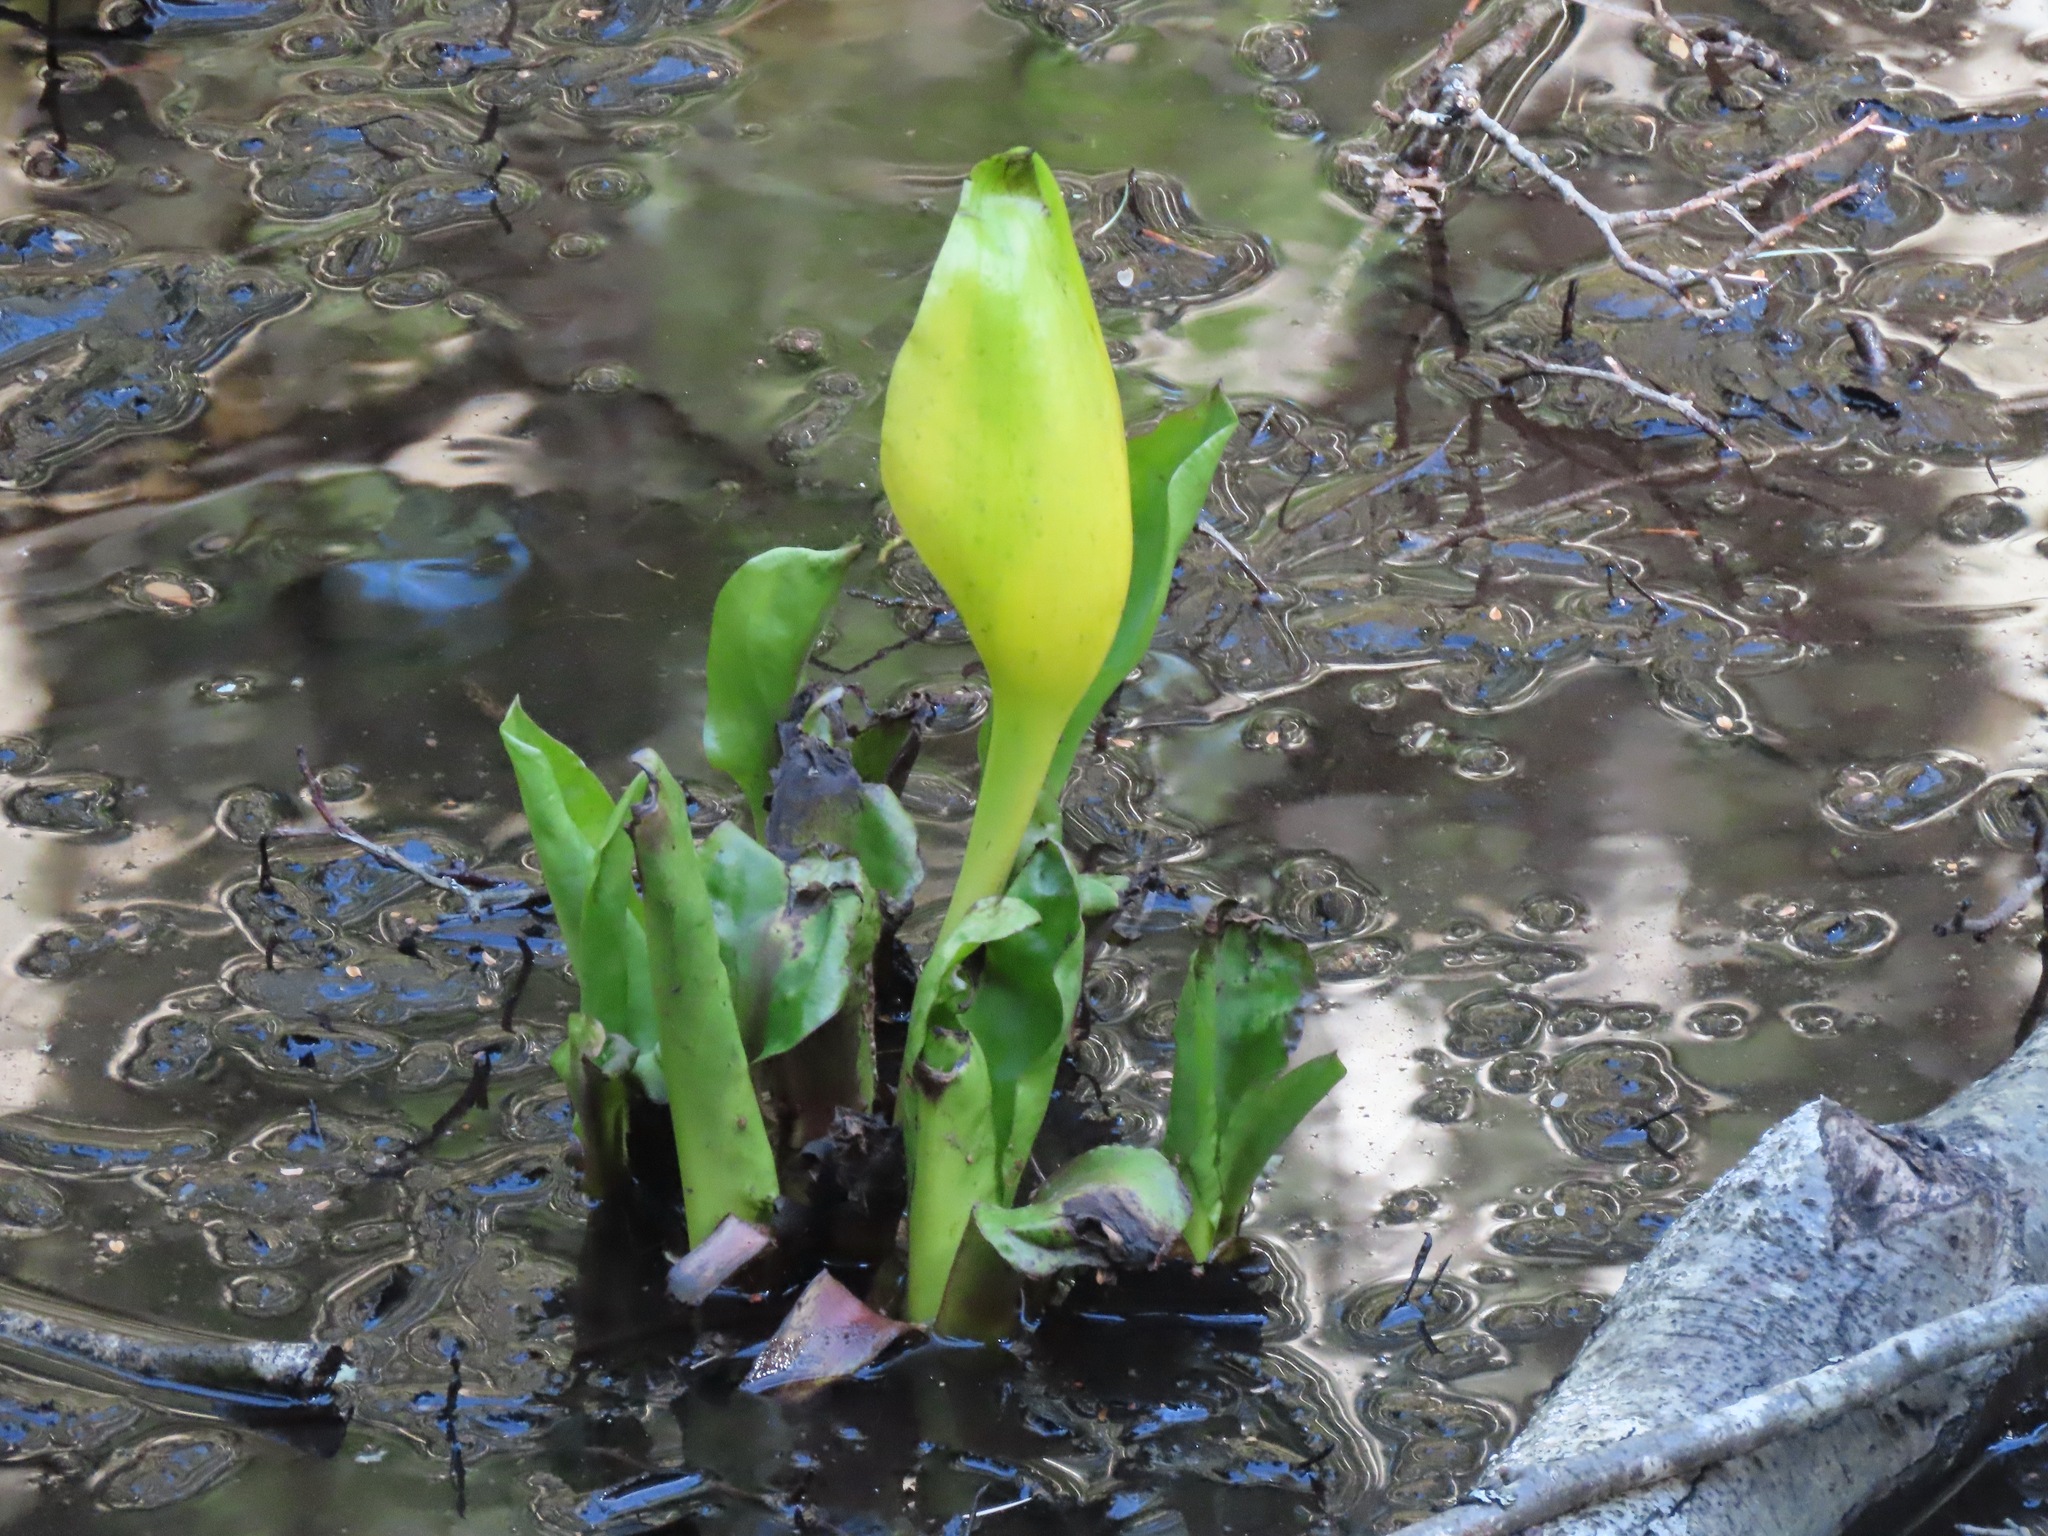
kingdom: Plantae
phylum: Tracheophyta
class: Liliopsida
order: Alismatales
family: Araceae
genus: Lysichiton
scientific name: Lysichiton americanus
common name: American skunk cabbage
